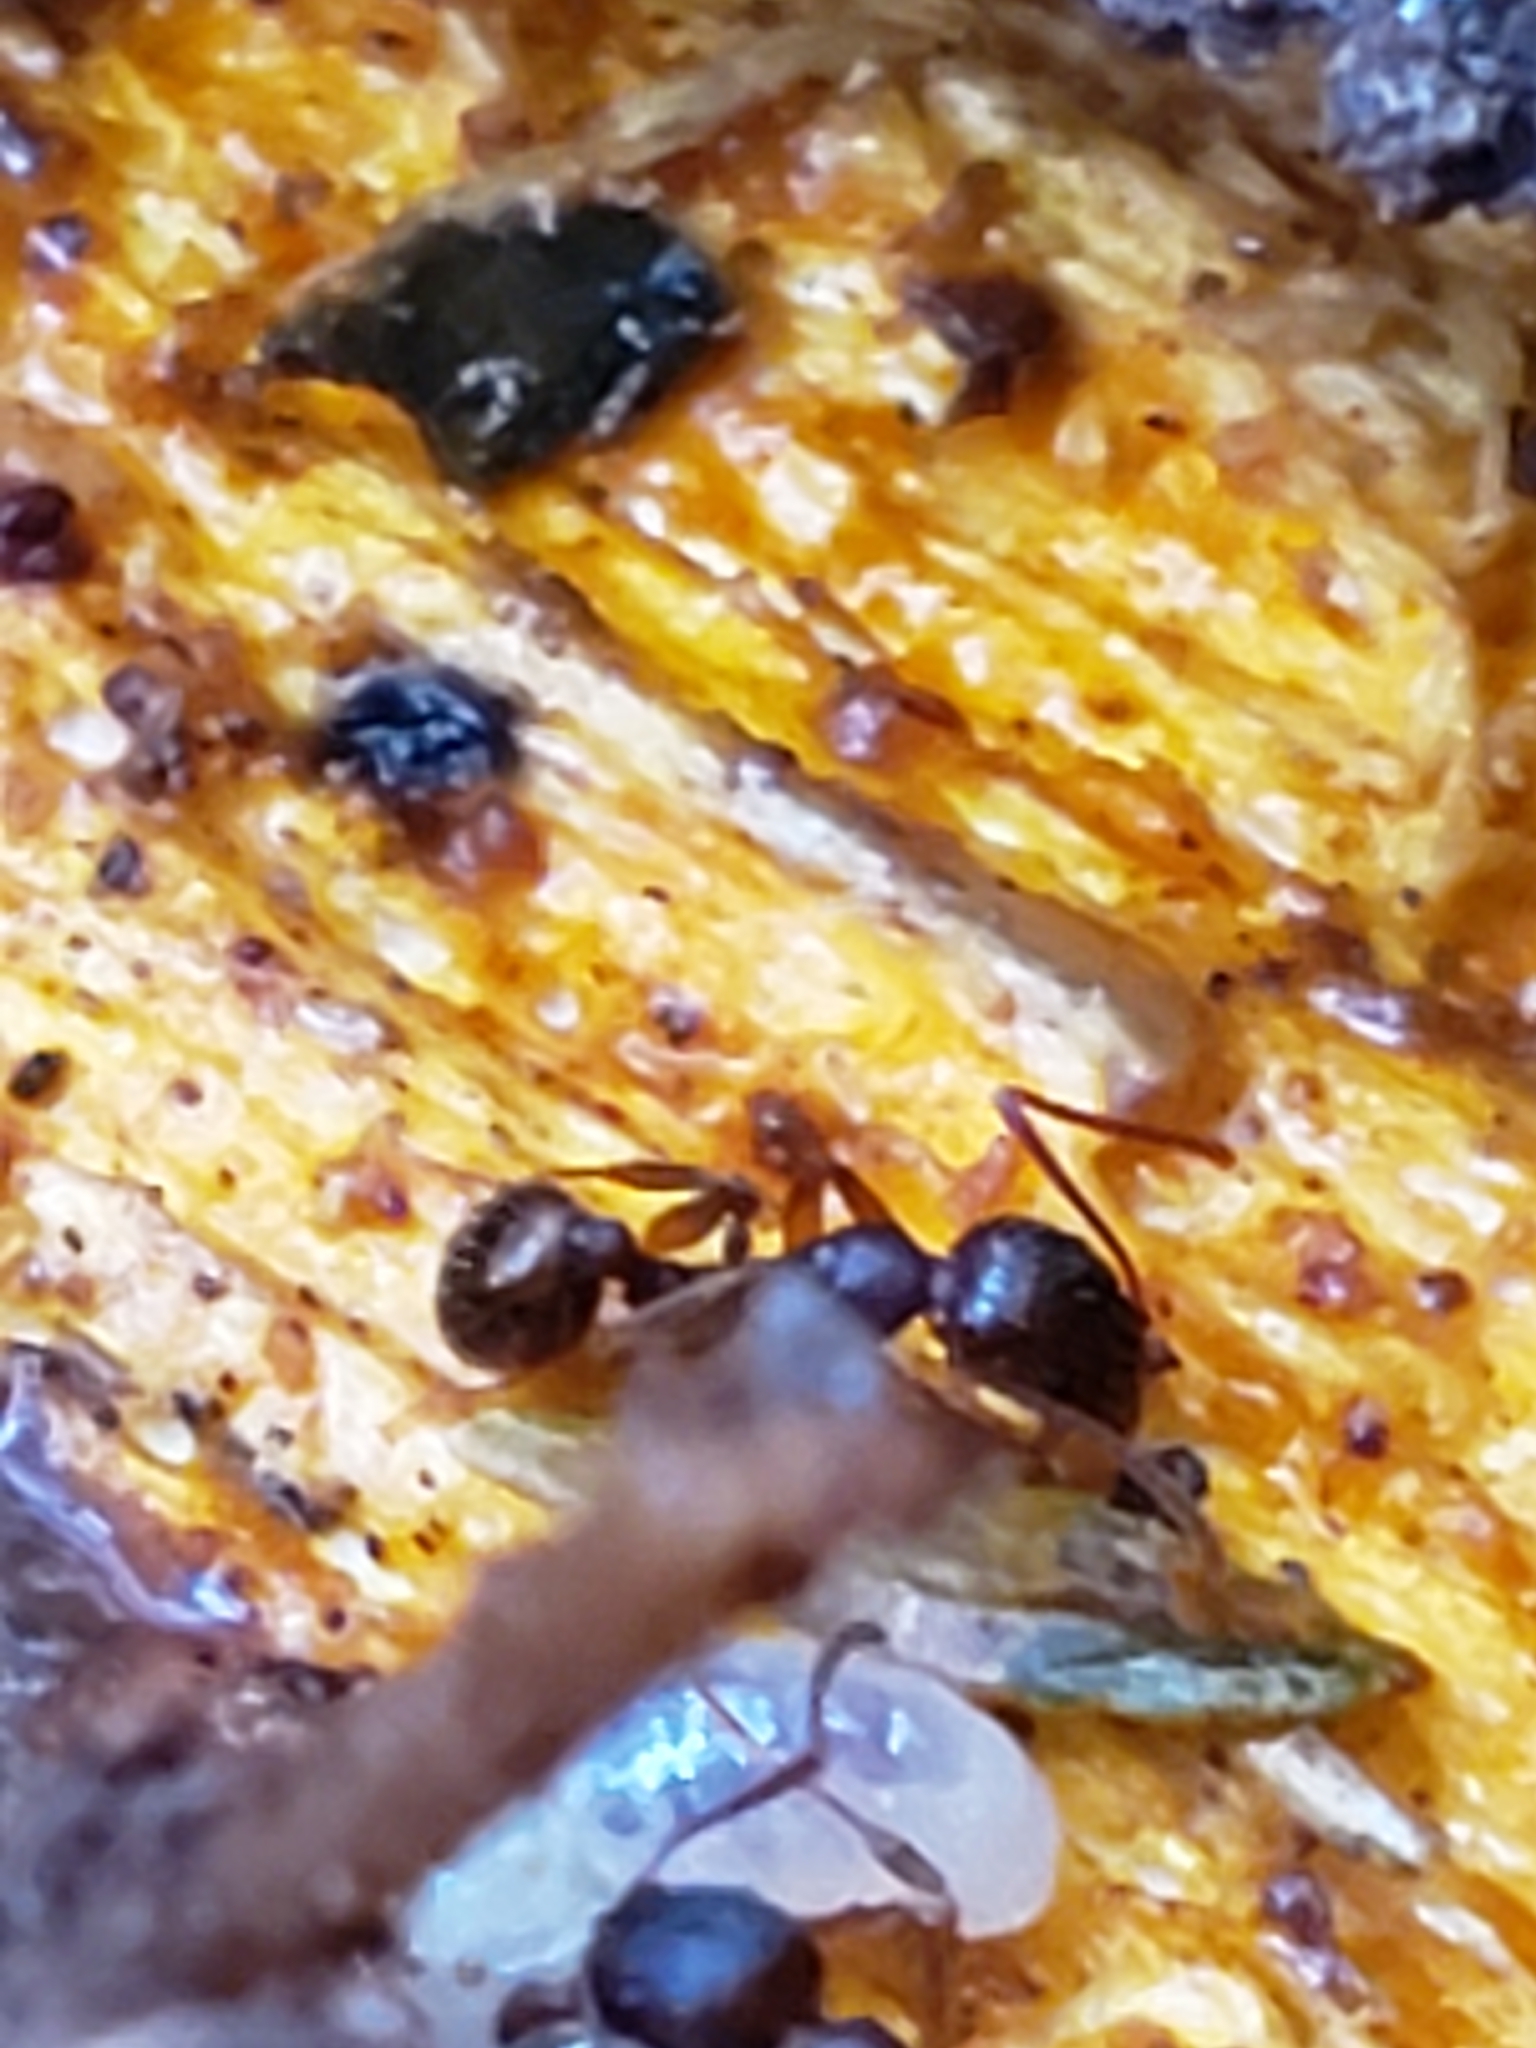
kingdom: Animalia
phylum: Arthropoda
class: Insecta
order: Hymenoptera
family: Formicidae
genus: Aphaenogaster
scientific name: Aphaenogaster rudis
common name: Winnow ant
